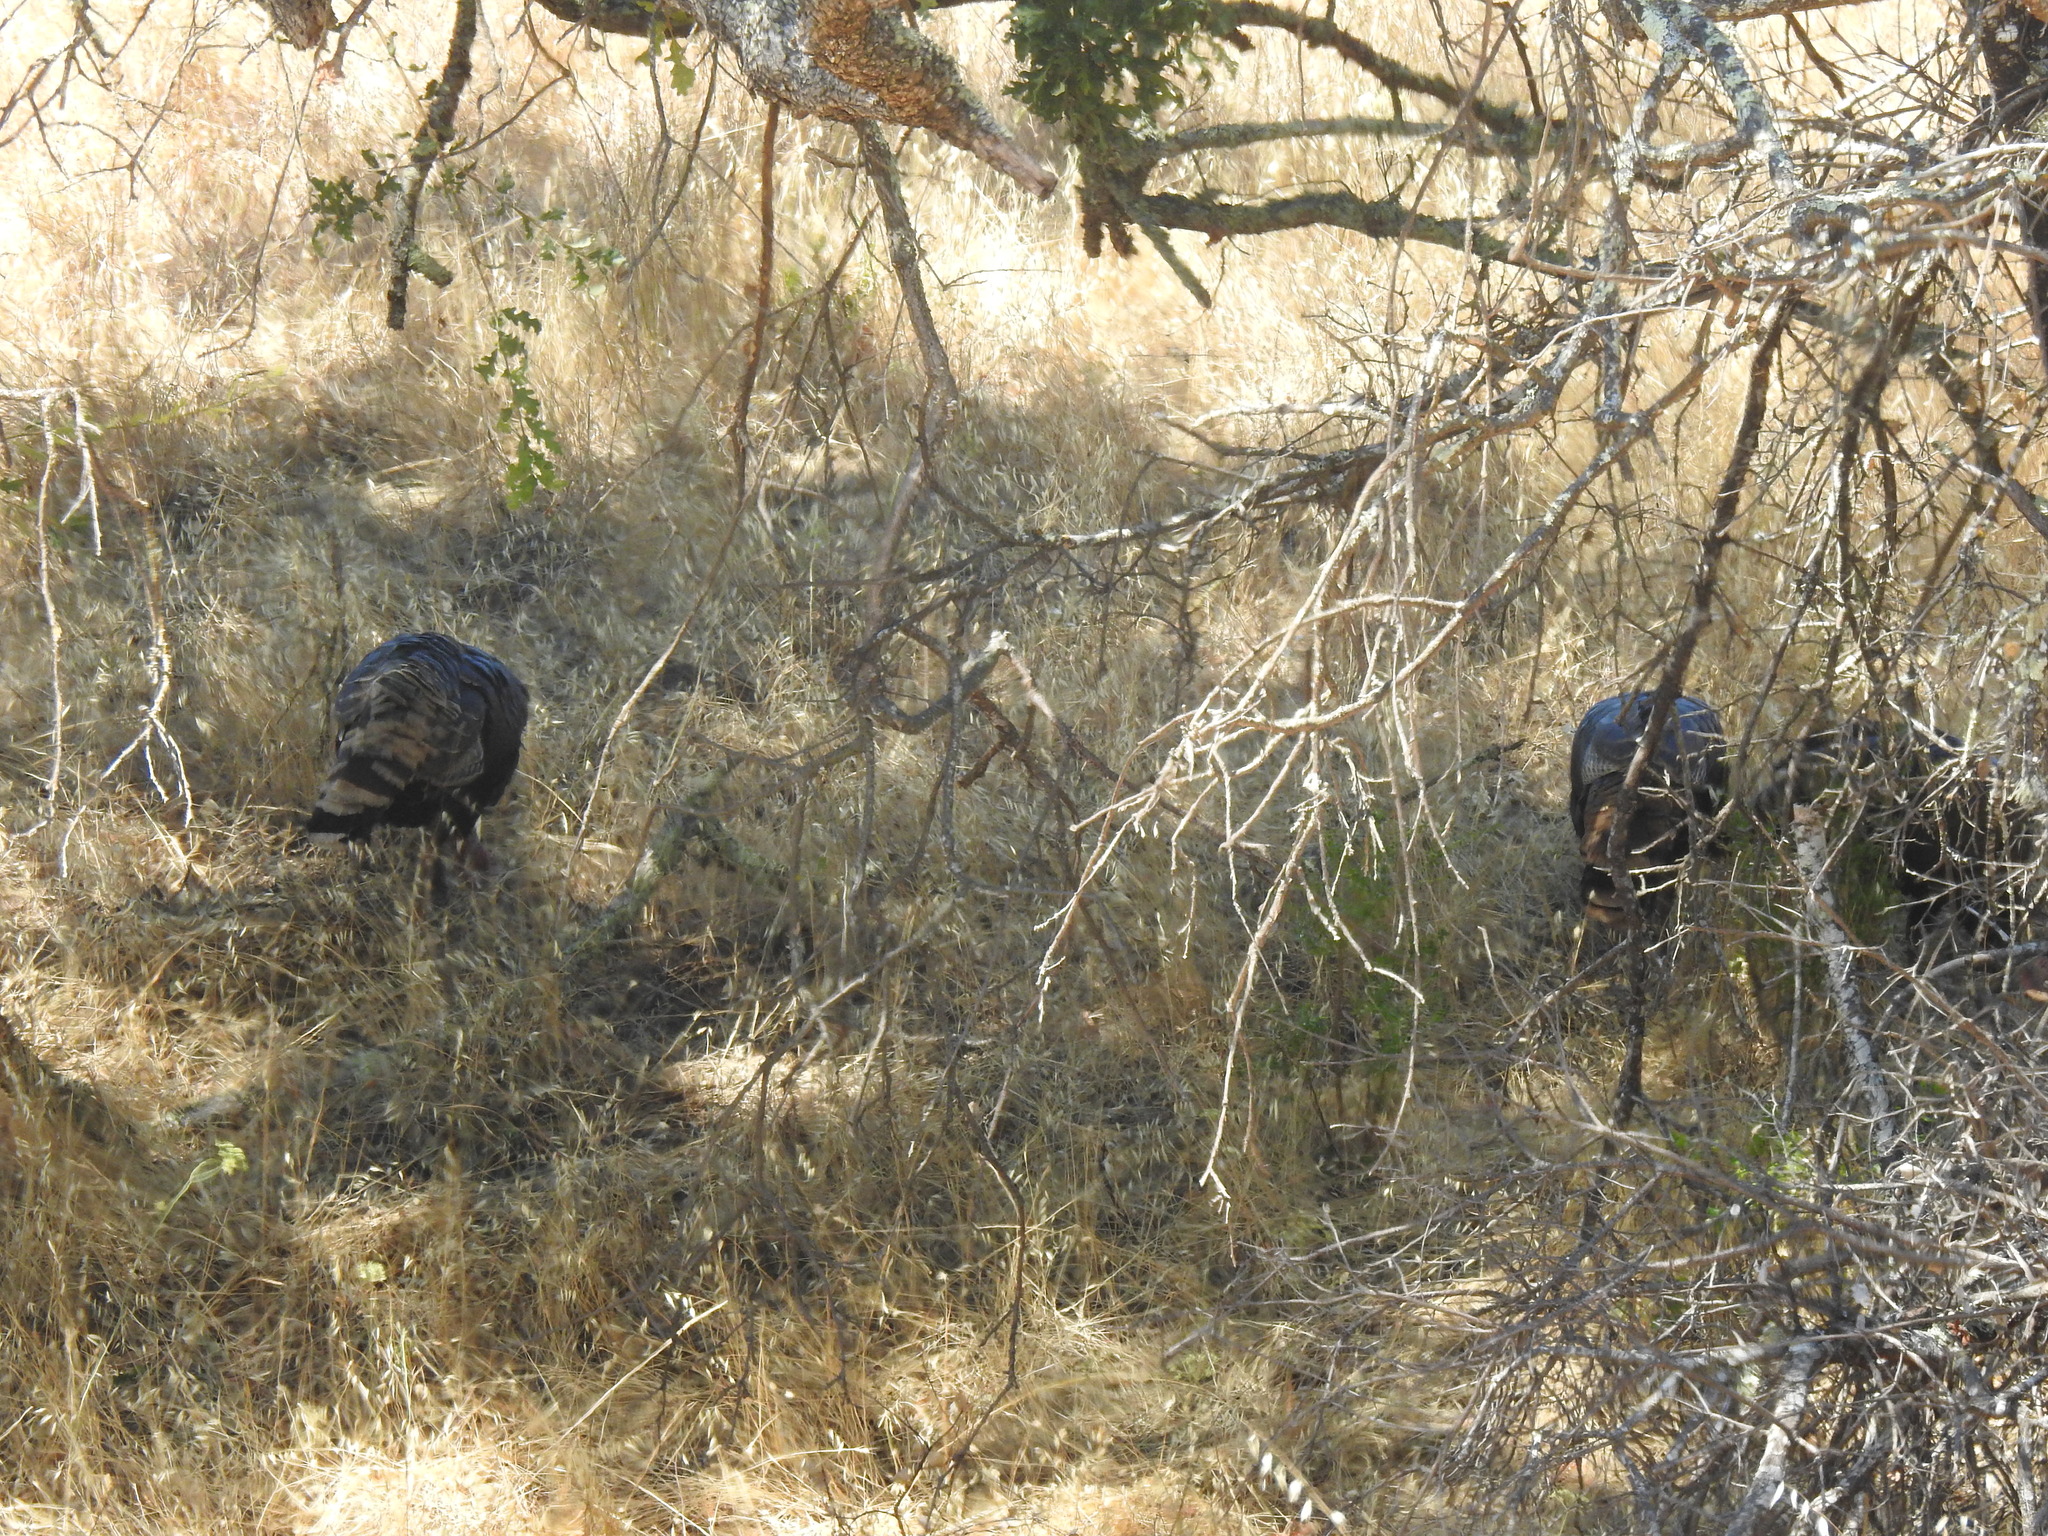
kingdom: Animalia
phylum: Chordata
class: Aves
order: Galliformes
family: Phasianidae
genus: Meleagris
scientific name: Meleagris gallopavo
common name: Wild turkey
